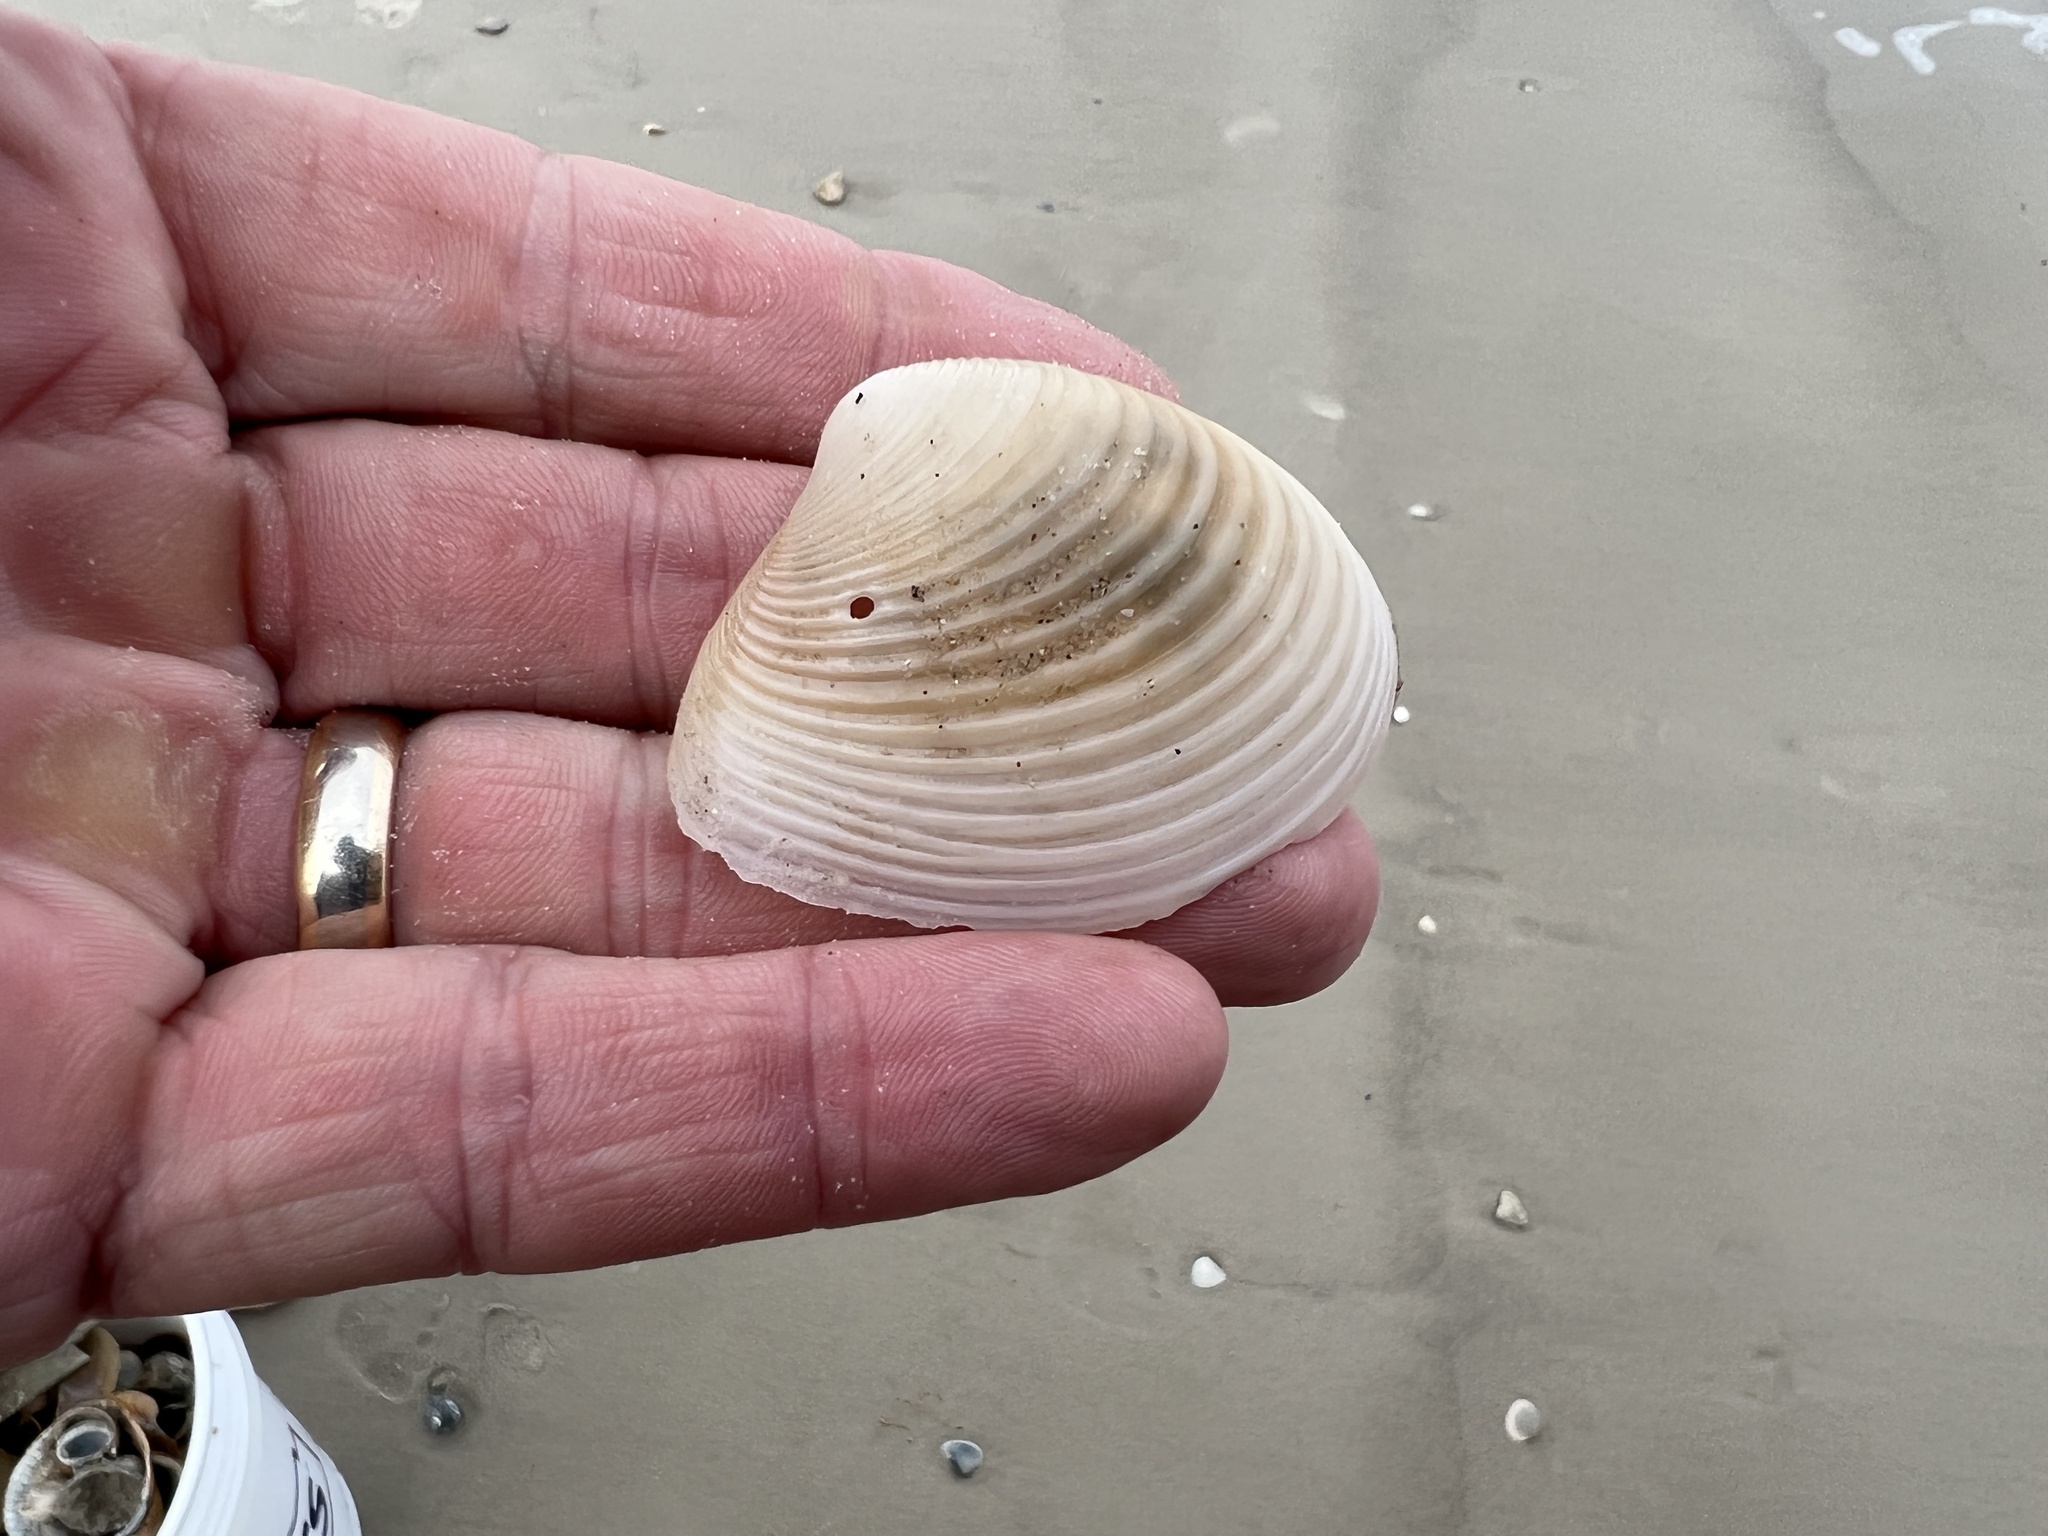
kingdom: Animalia
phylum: Mollusca
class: Bivalvia
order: Venerida
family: Anatinellidae
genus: Raeta
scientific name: Raeta plicatella
